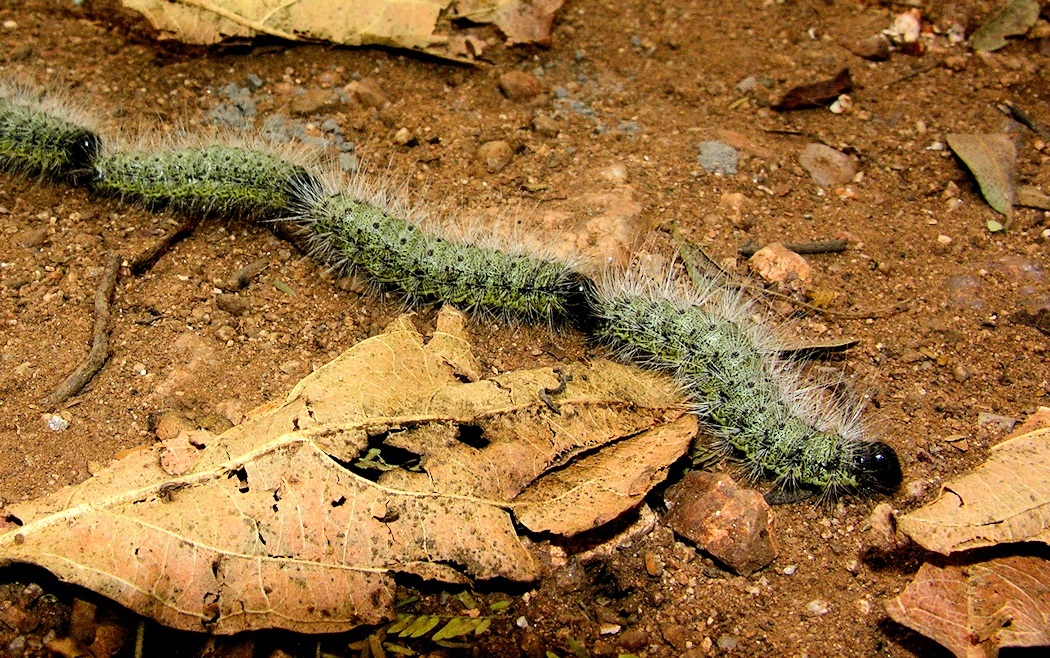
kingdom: Animalia
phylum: Arthropoda
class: Insecta
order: Lepidoptera
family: Notodontidae
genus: Anaphe
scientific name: Anaphe reticulata
